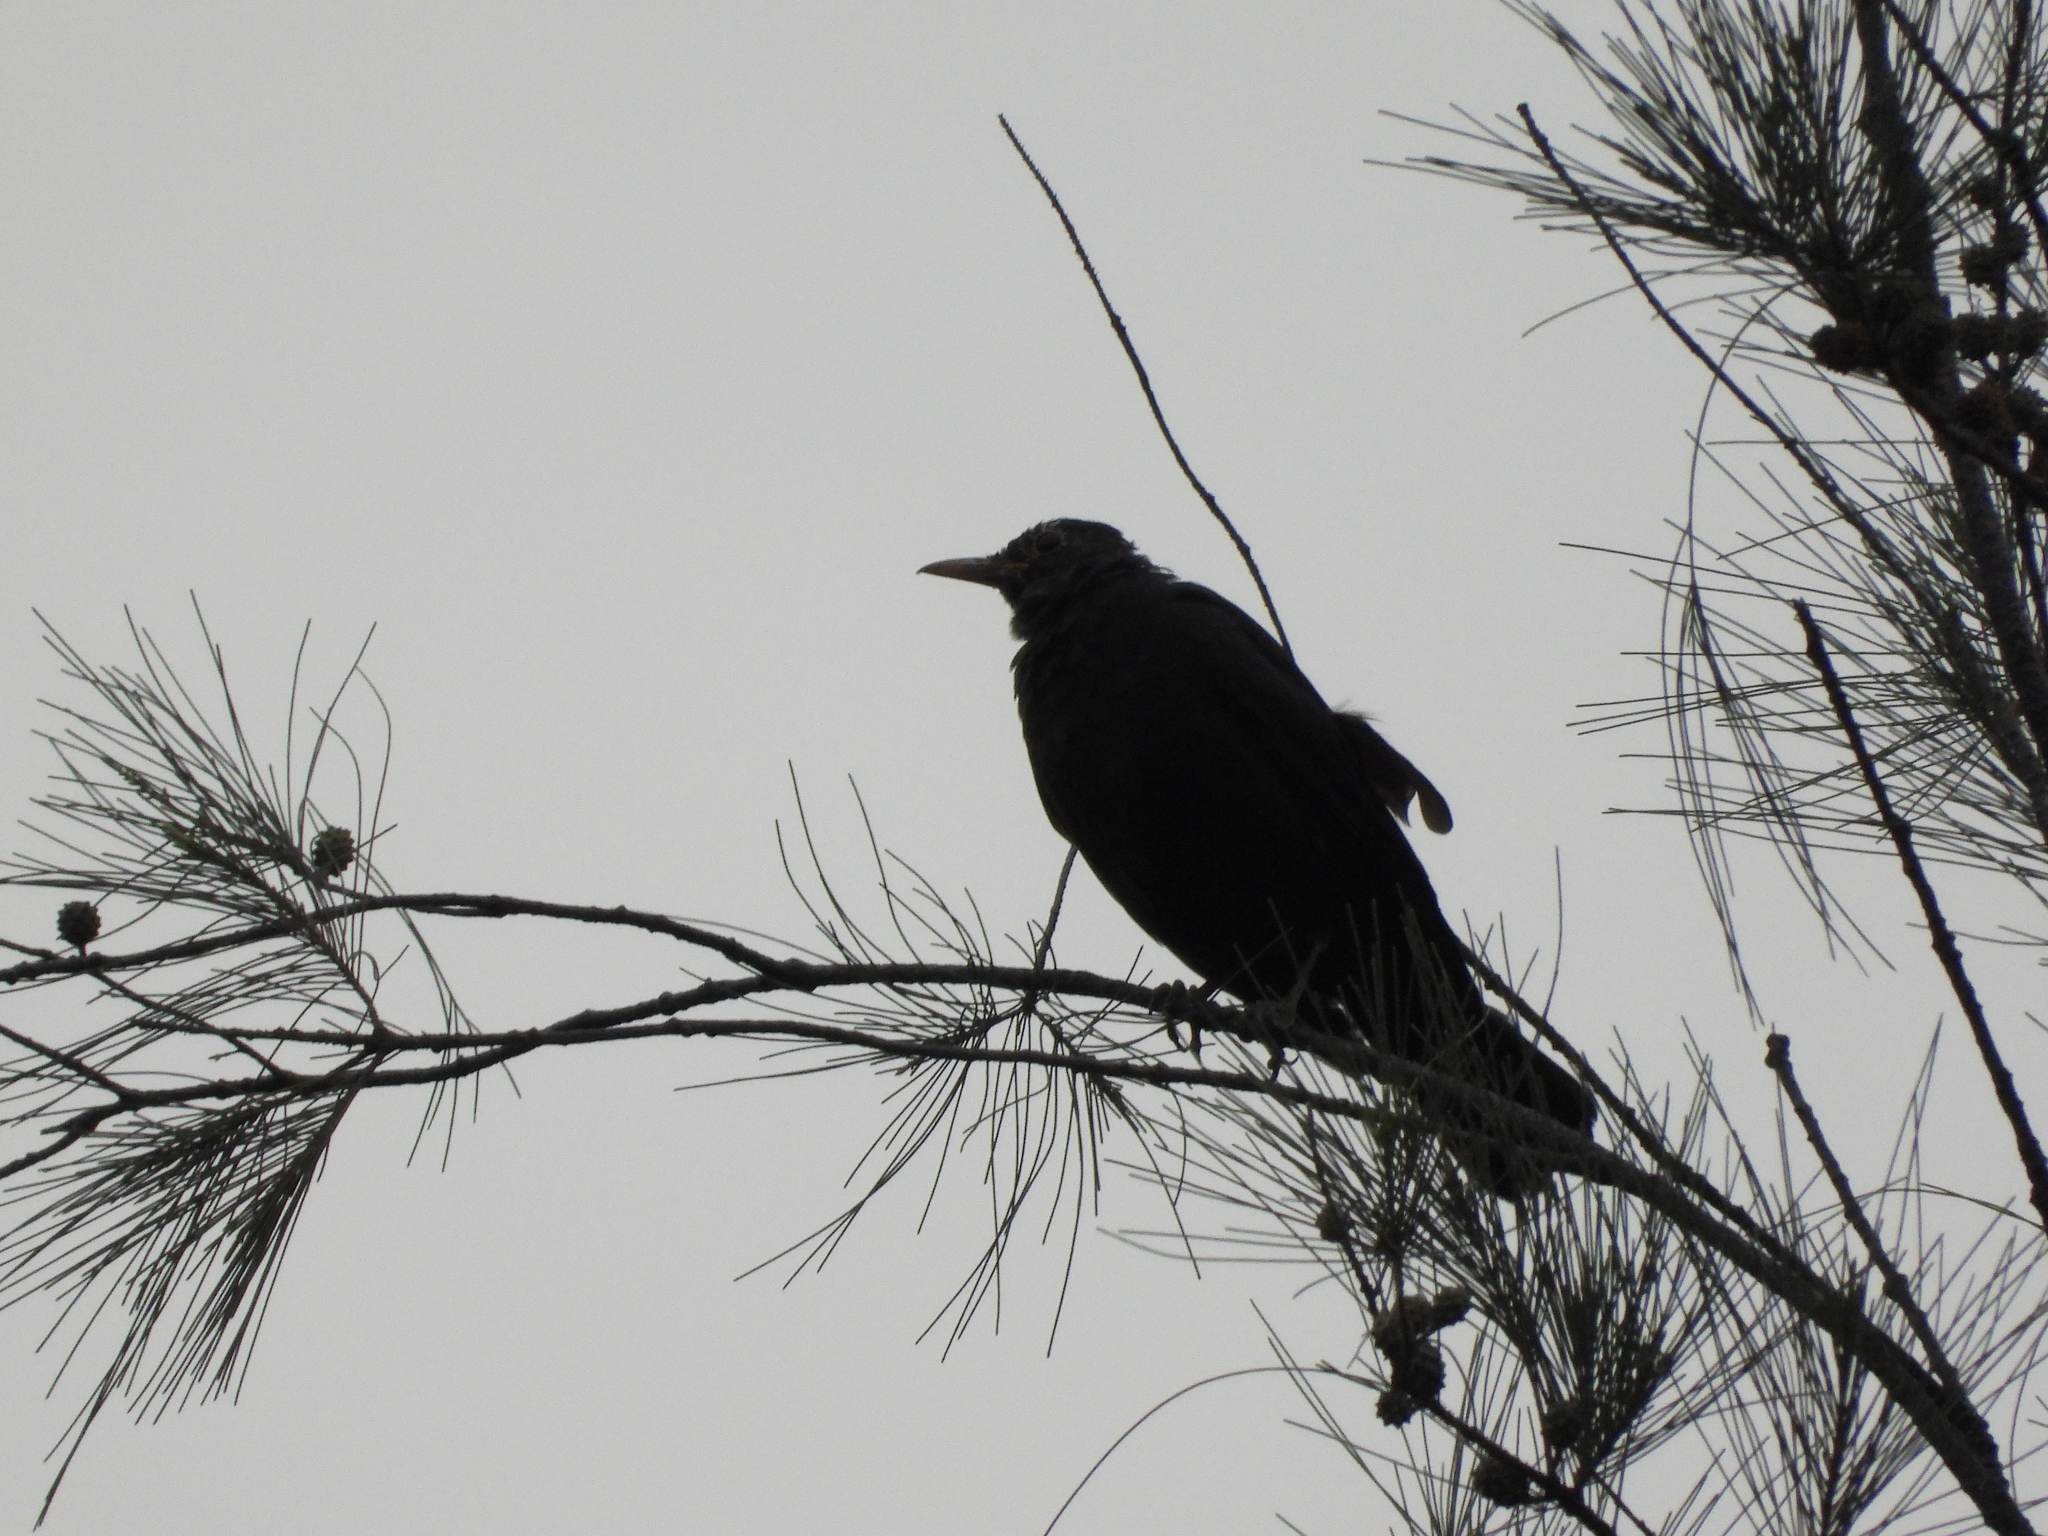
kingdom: Animalia
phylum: Chordata
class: Aves
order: Passeriformes
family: Turdidae
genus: Turdus
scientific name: Turdus mandarinus
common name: Chinese blackbird
